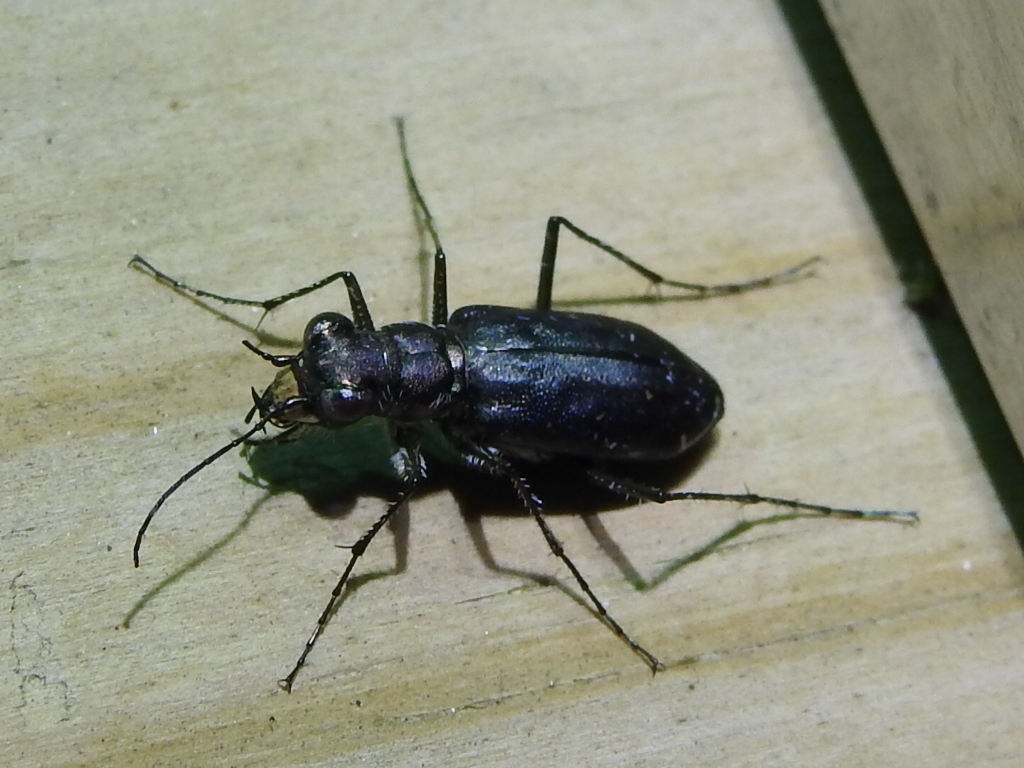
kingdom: Animalia
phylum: Arthropoda
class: Insecta
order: Coleoptera
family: Carabidae
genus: Cicindela
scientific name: Cicindela punctulata
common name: Punctured tiger beetle
